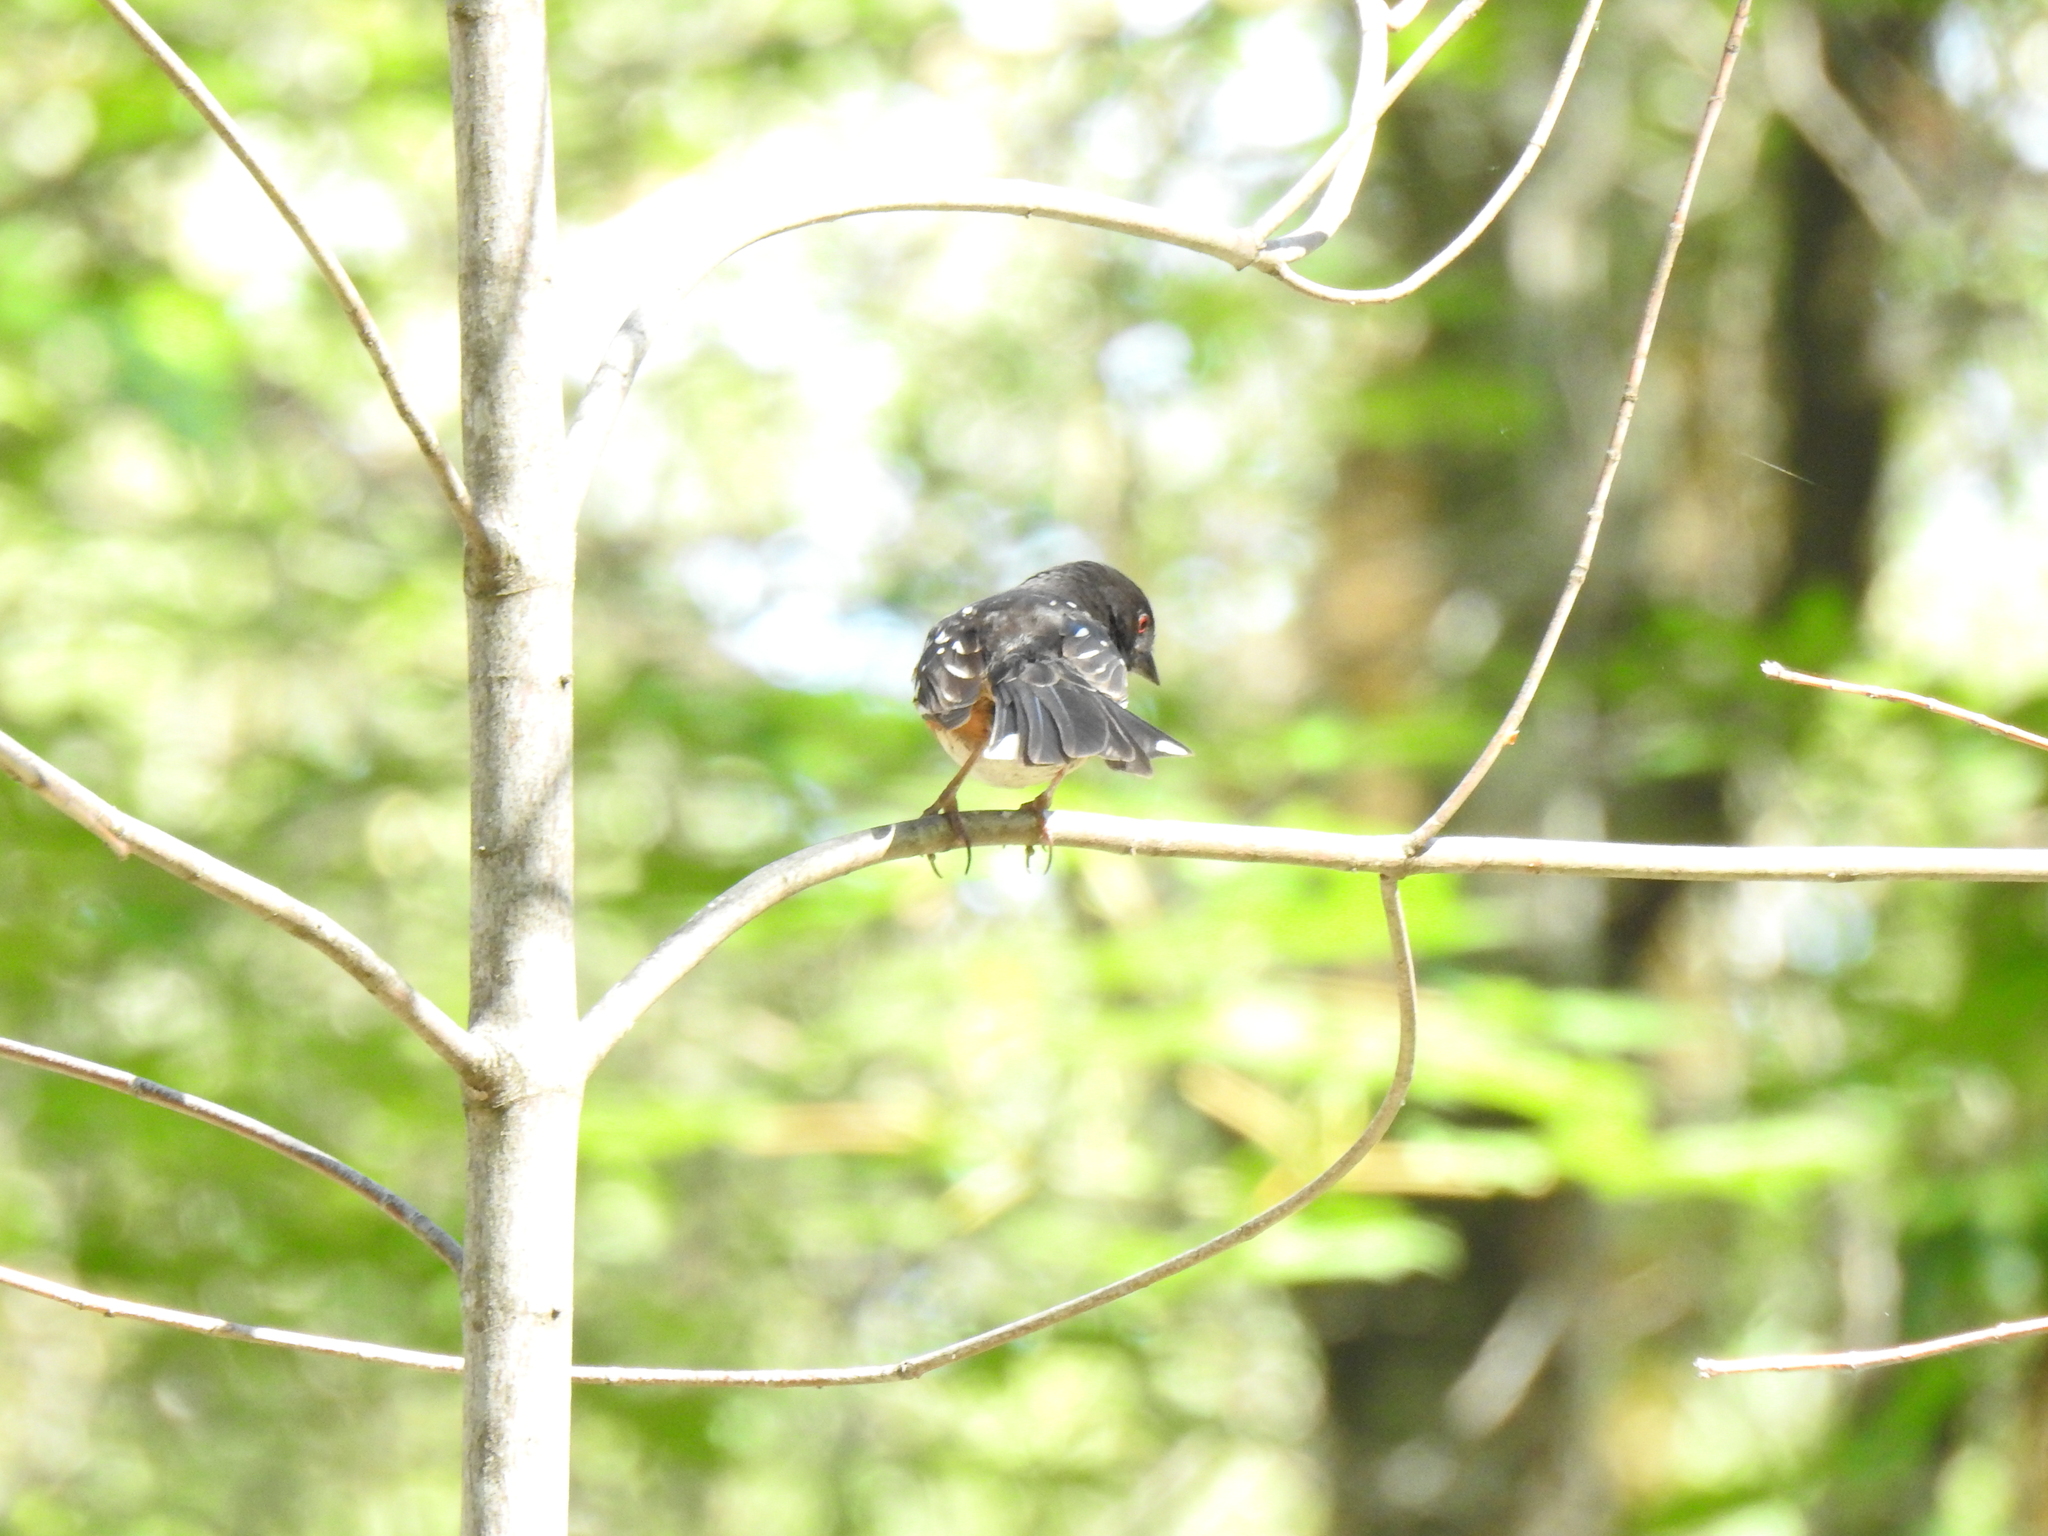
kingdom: Animalia
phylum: Chordata
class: Aves
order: Passeriformes
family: Passerellidae
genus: Pipilo
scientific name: Pipilo maculatus
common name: Spotted towhee
